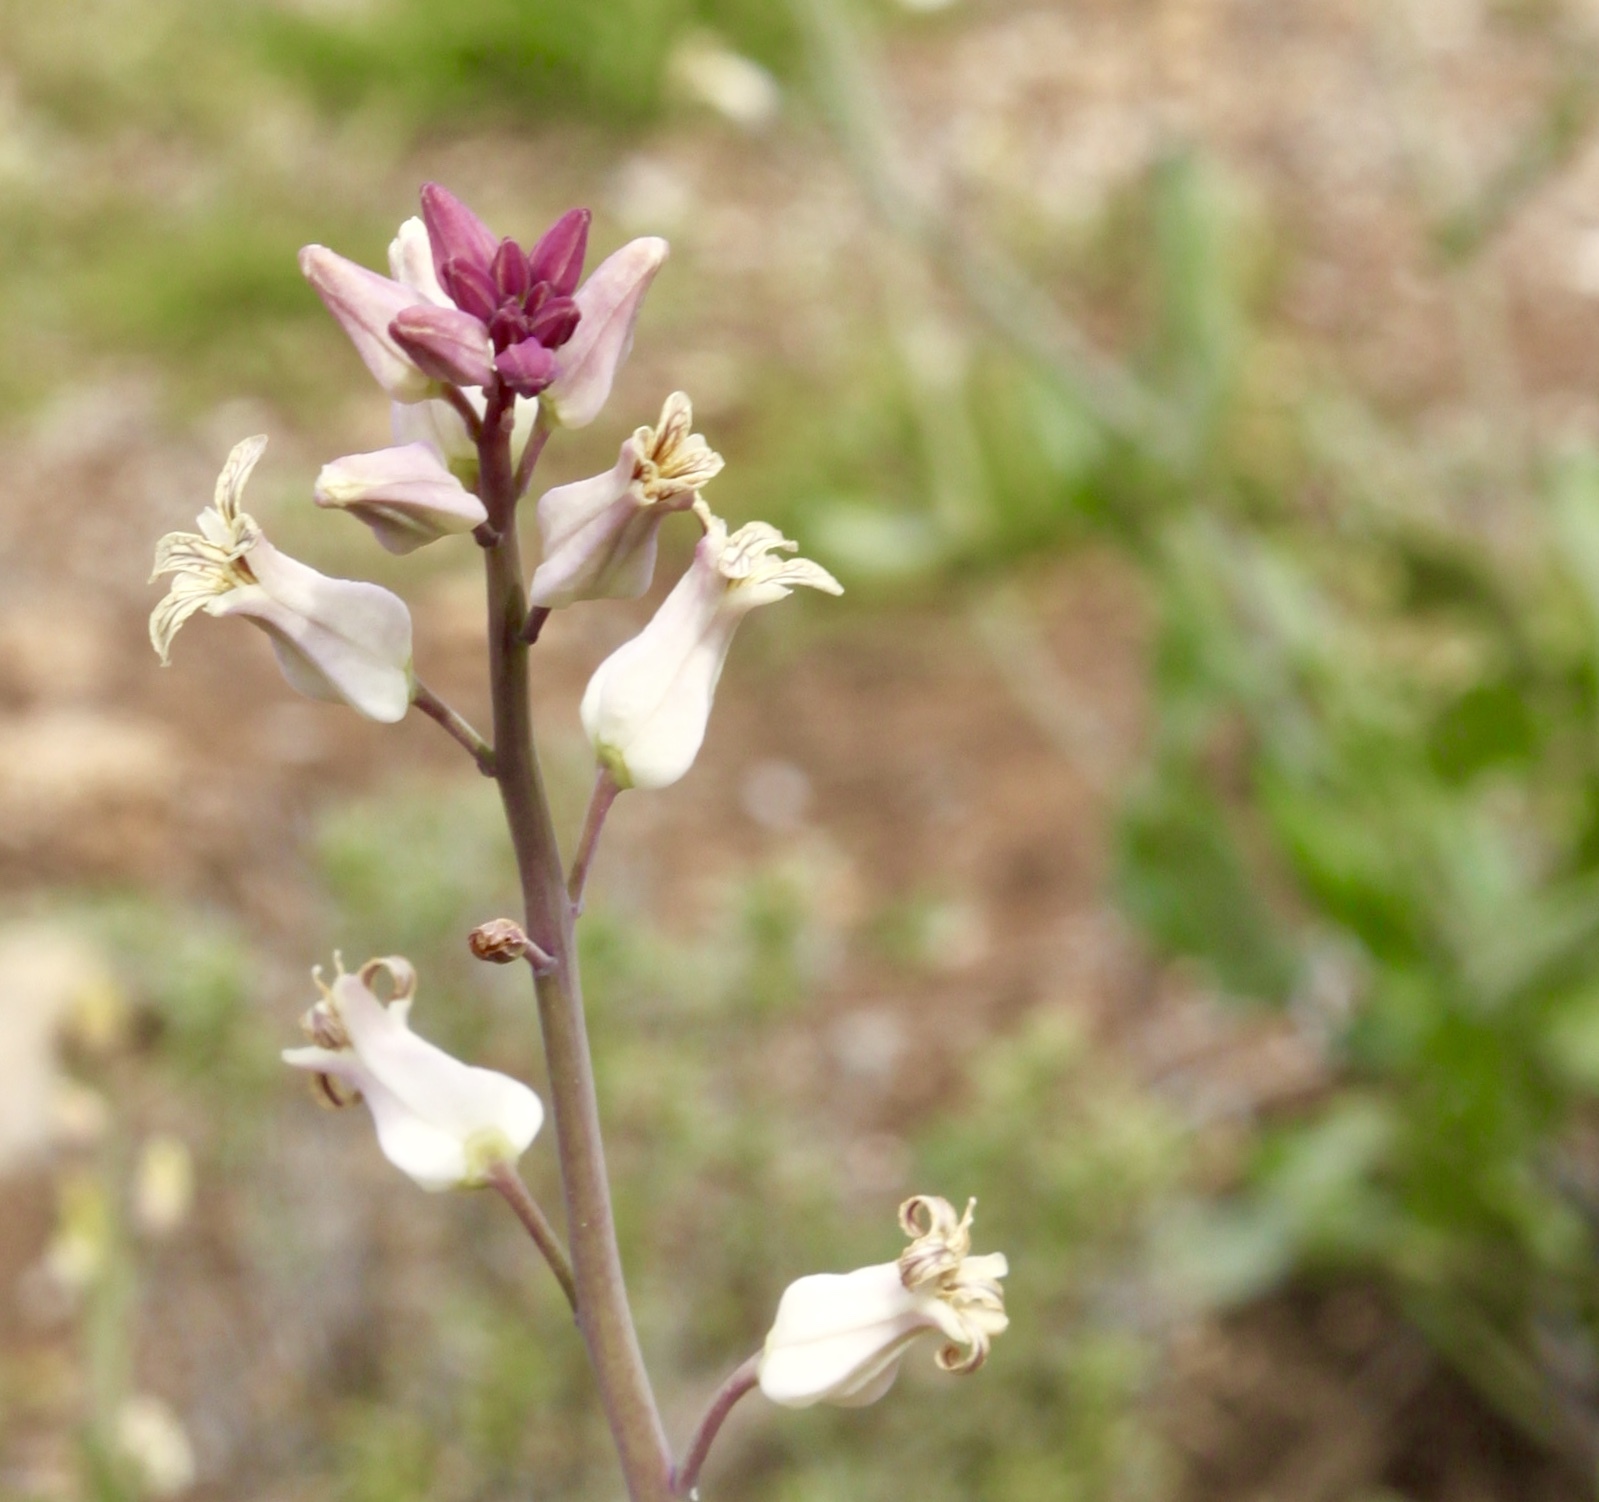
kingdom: Plantae
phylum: Tracheophyta
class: Magnoliopsida
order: Brassicales
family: Brassicaceae
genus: Streptanthus
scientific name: Streptanthus carinatus
